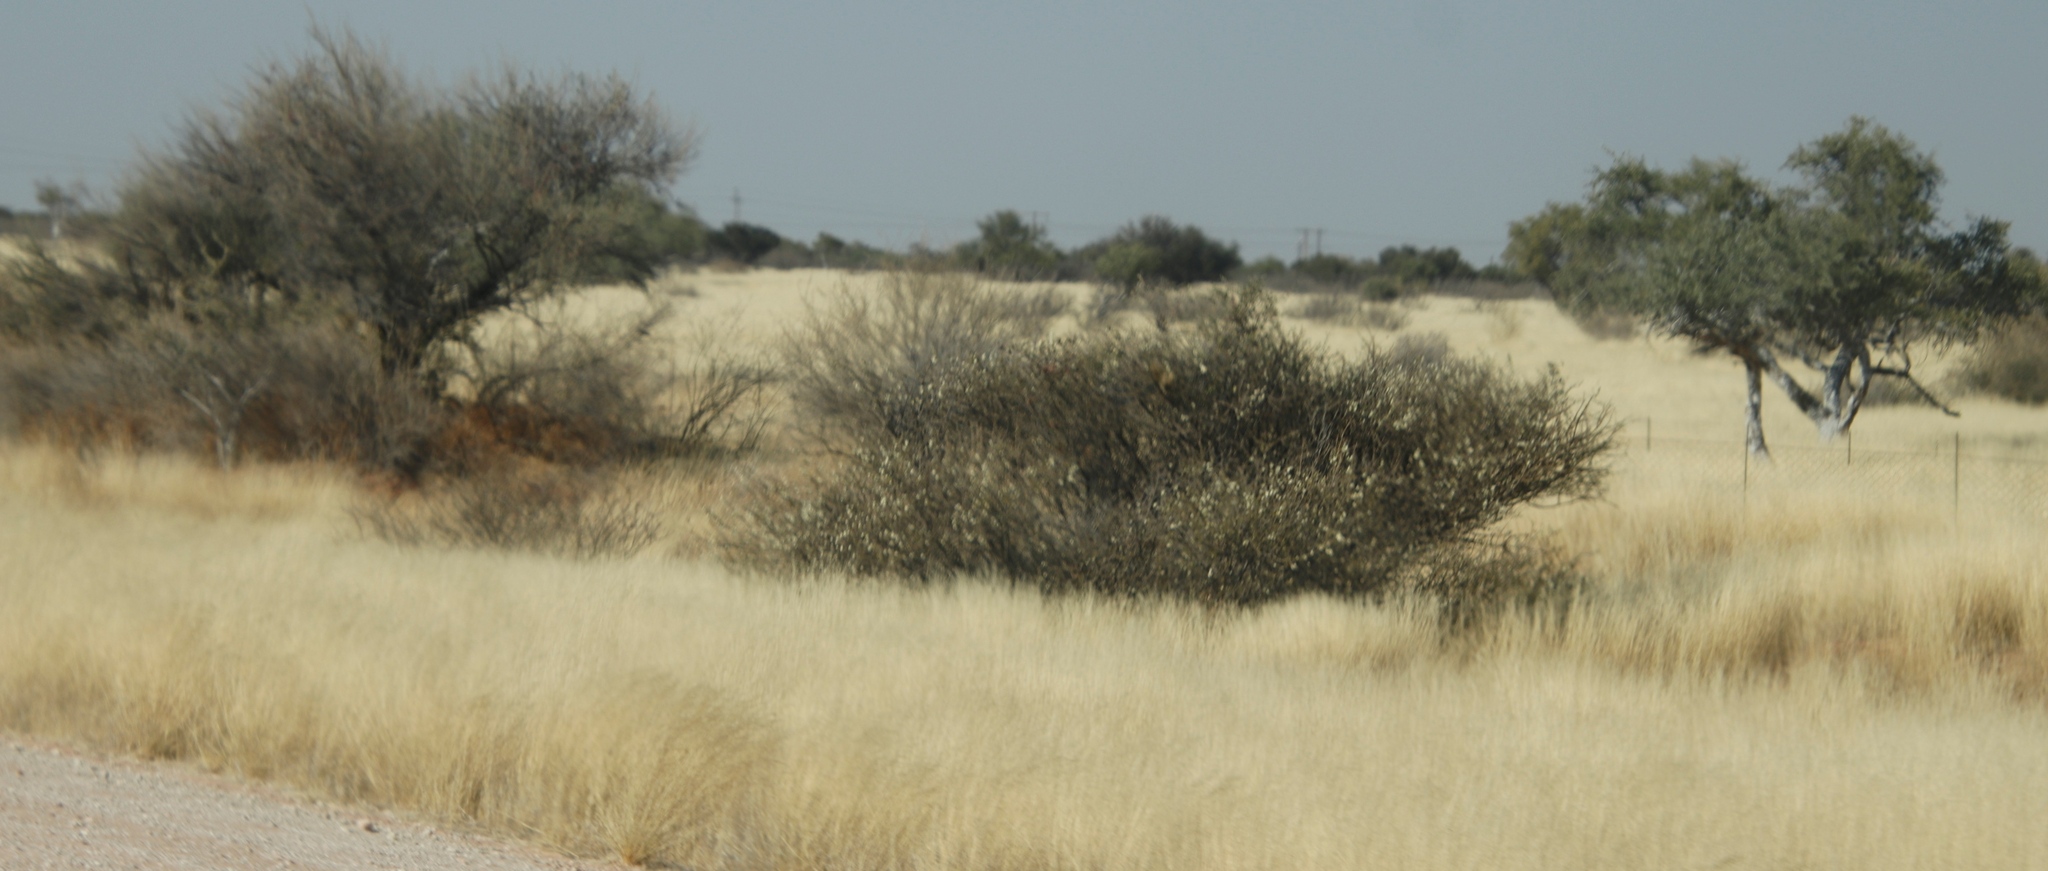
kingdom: Plantae
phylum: Tracheophyta
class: Magnoliopsida
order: Fabales
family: Fabaceae
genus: Senegalia
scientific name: Senegalia mellifera
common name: Hookthorn
